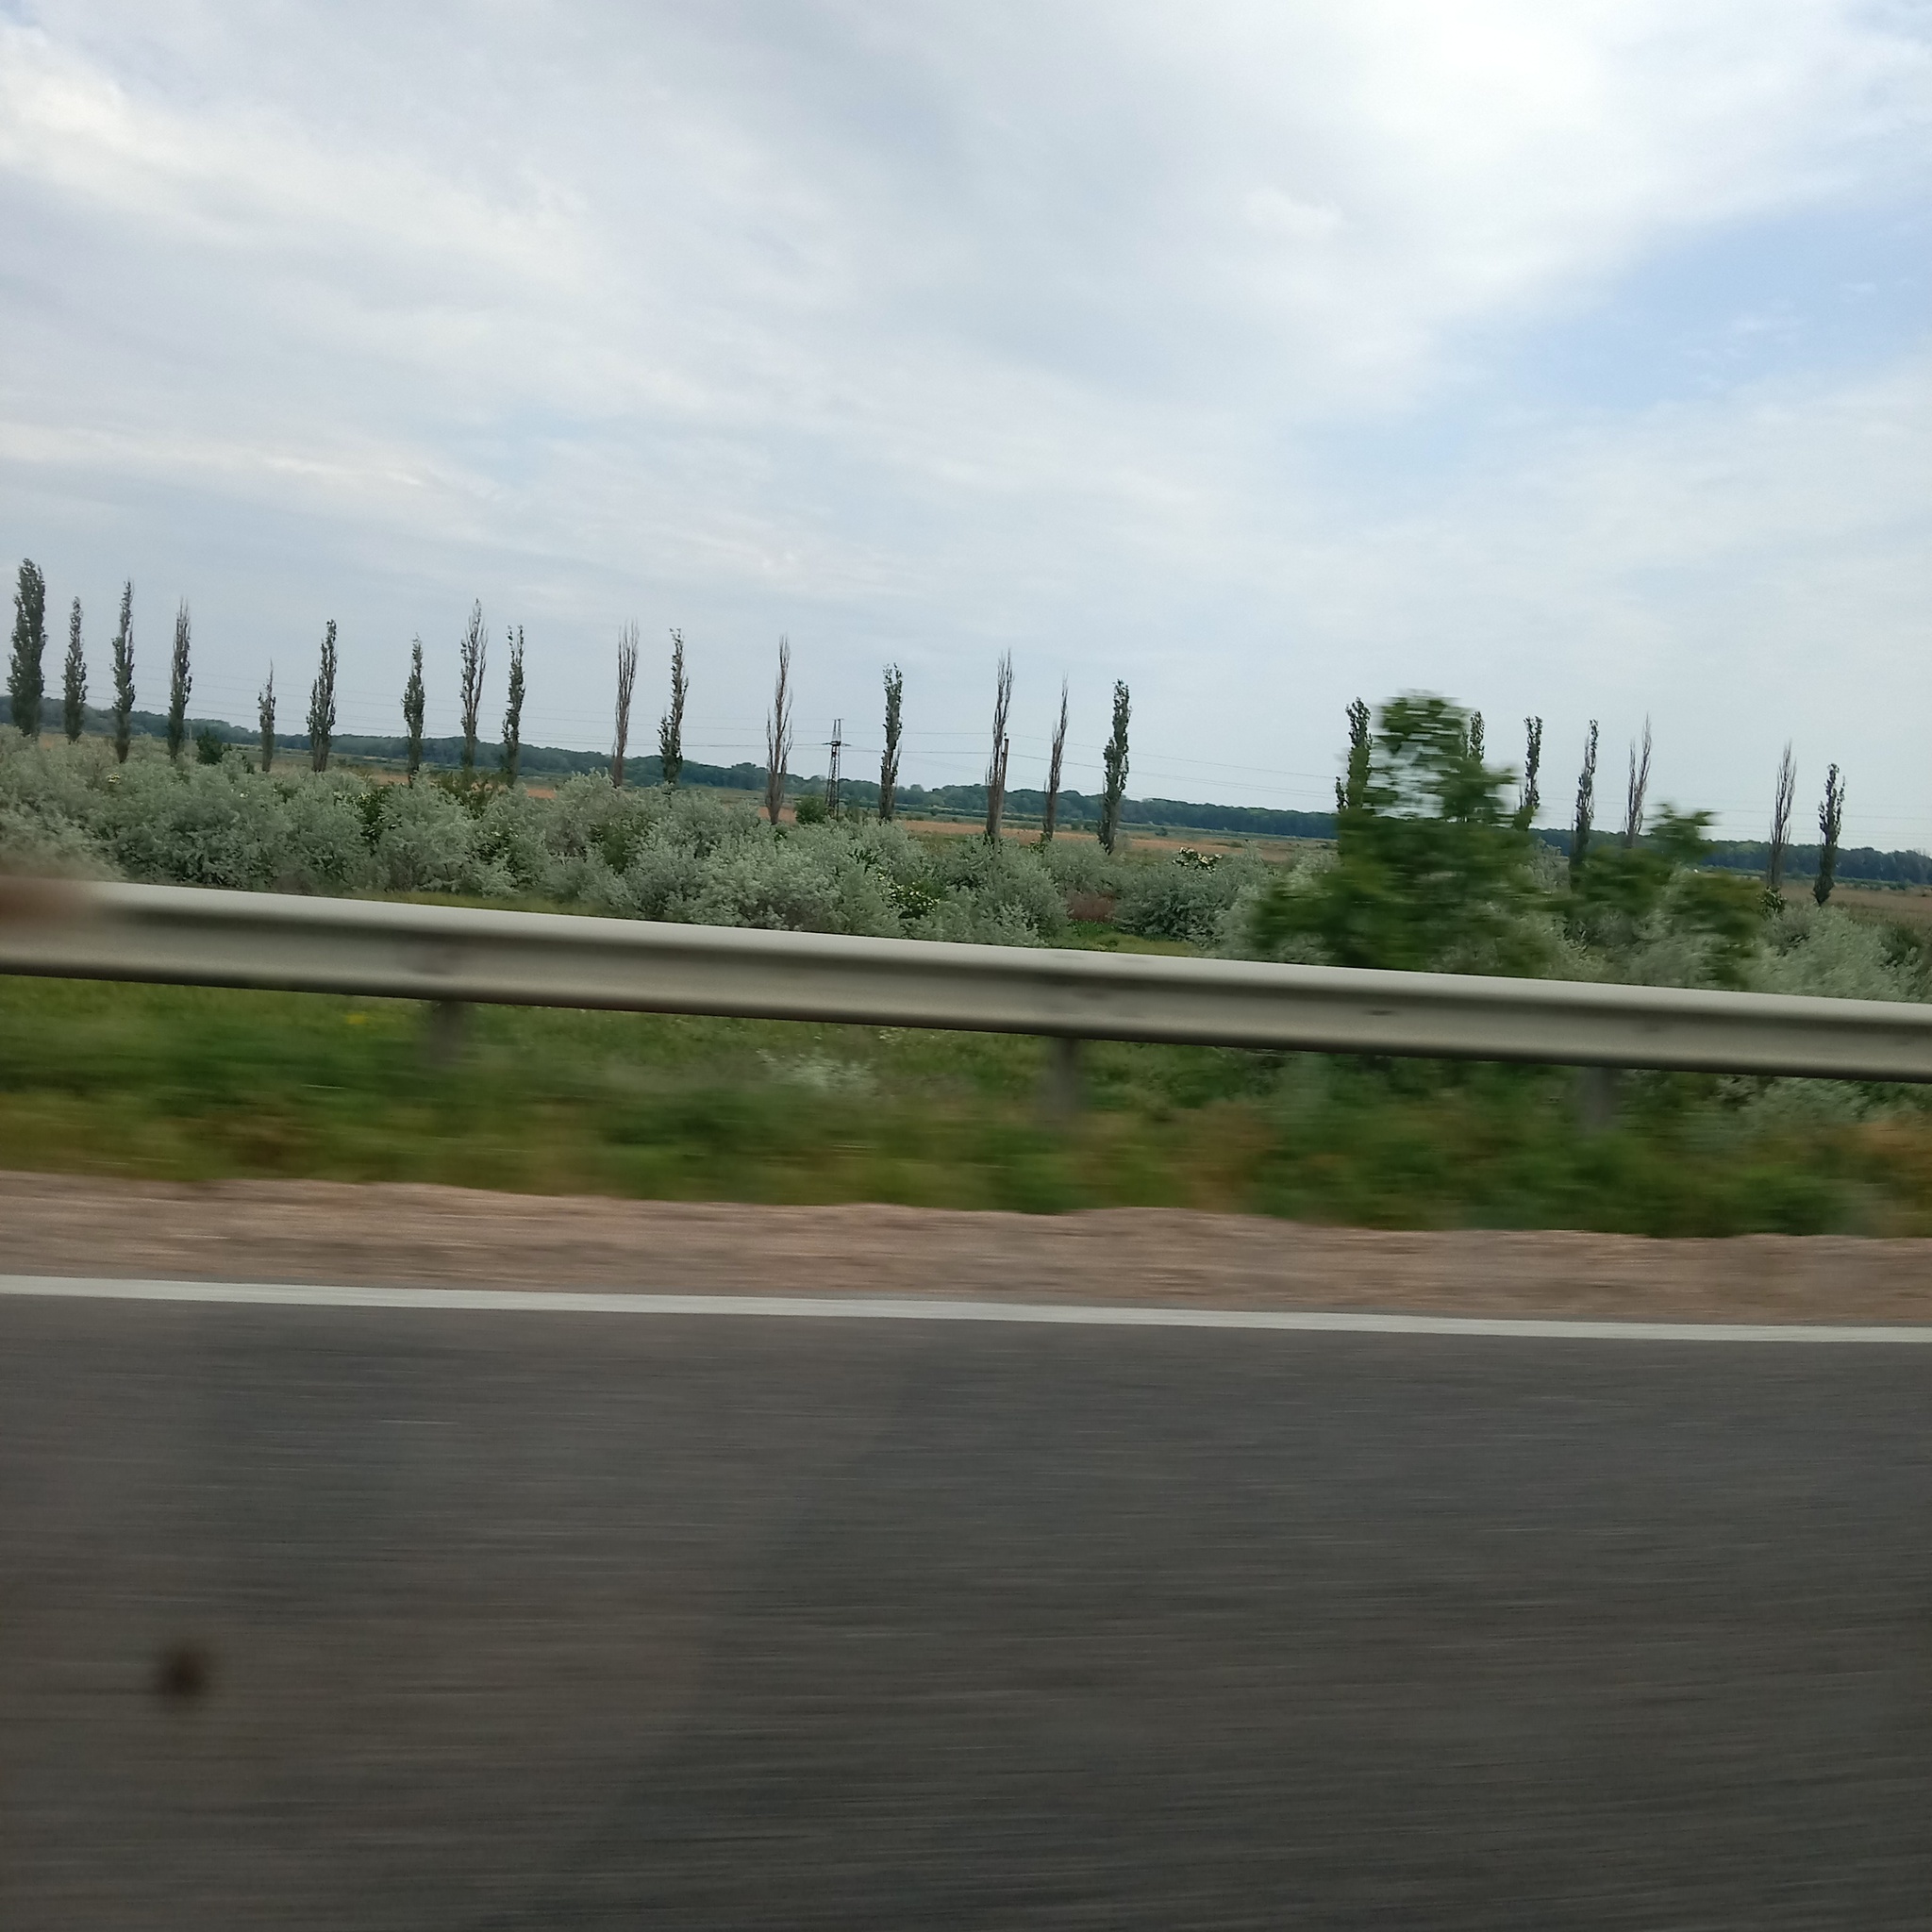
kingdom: Plantae
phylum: Tracheophyta
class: Magnoliopsida
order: Rosales
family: Elaeagnaceae
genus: Elaeagnus
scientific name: Elaeagnus angustifolia
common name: Russian olive
